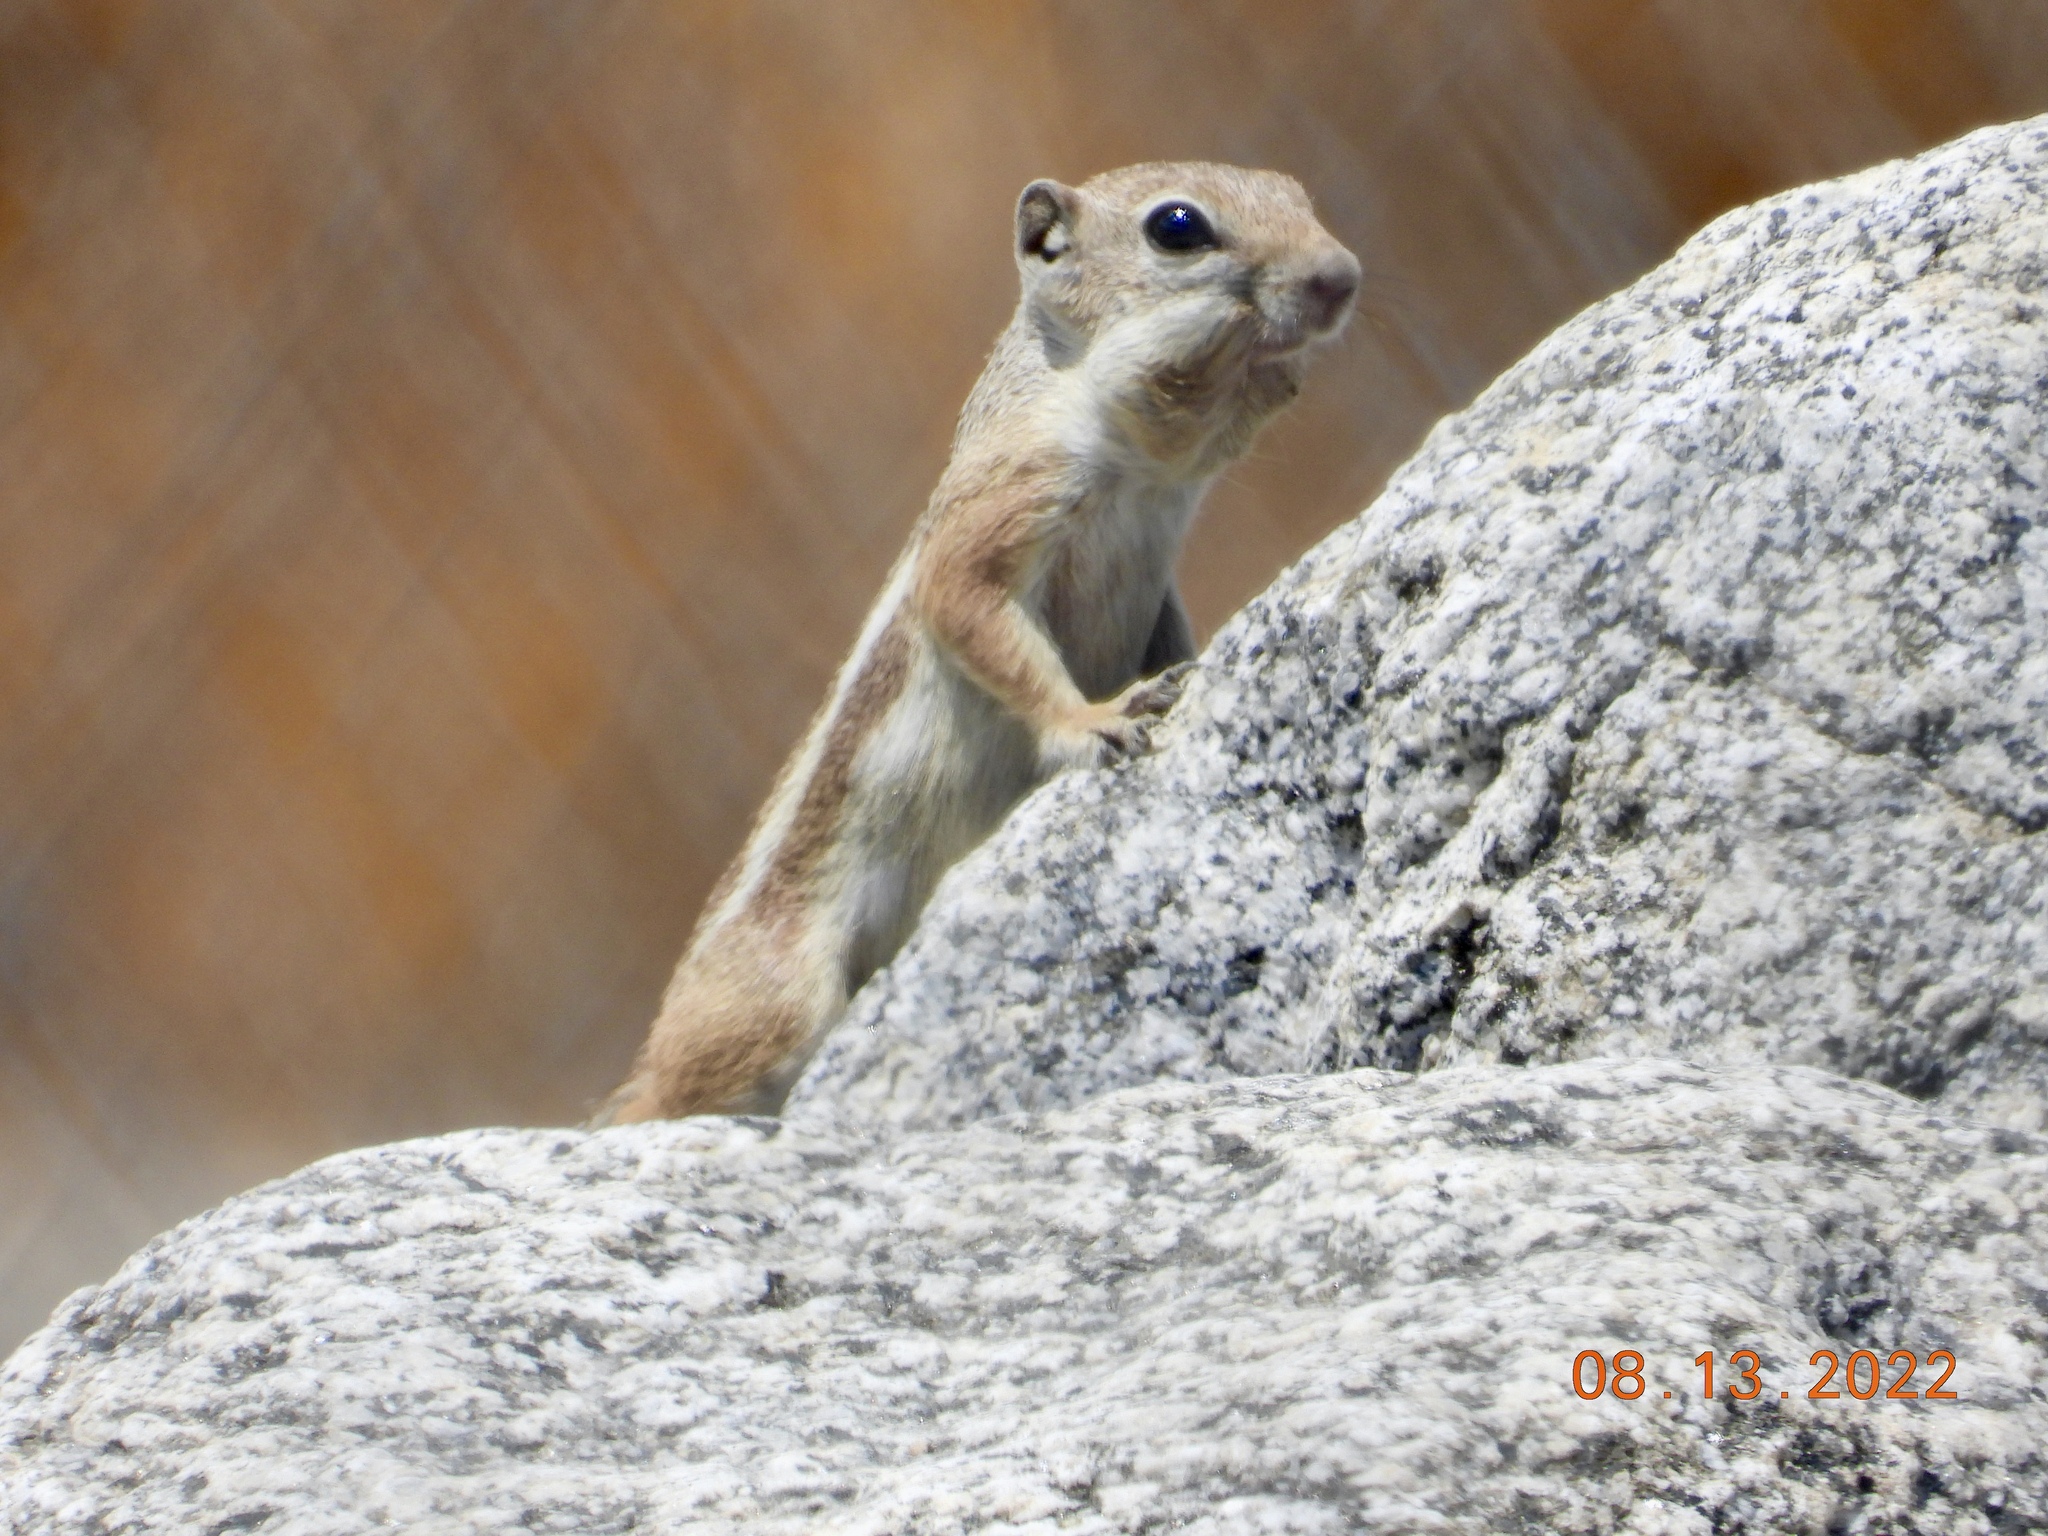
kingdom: Animalia
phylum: Chordata
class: Mammalia
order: Rodentia
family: Sciuridae
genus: Ammospermophilus
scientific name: Ammospermophilus leucurus
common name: White-tailed antelope squirrel
